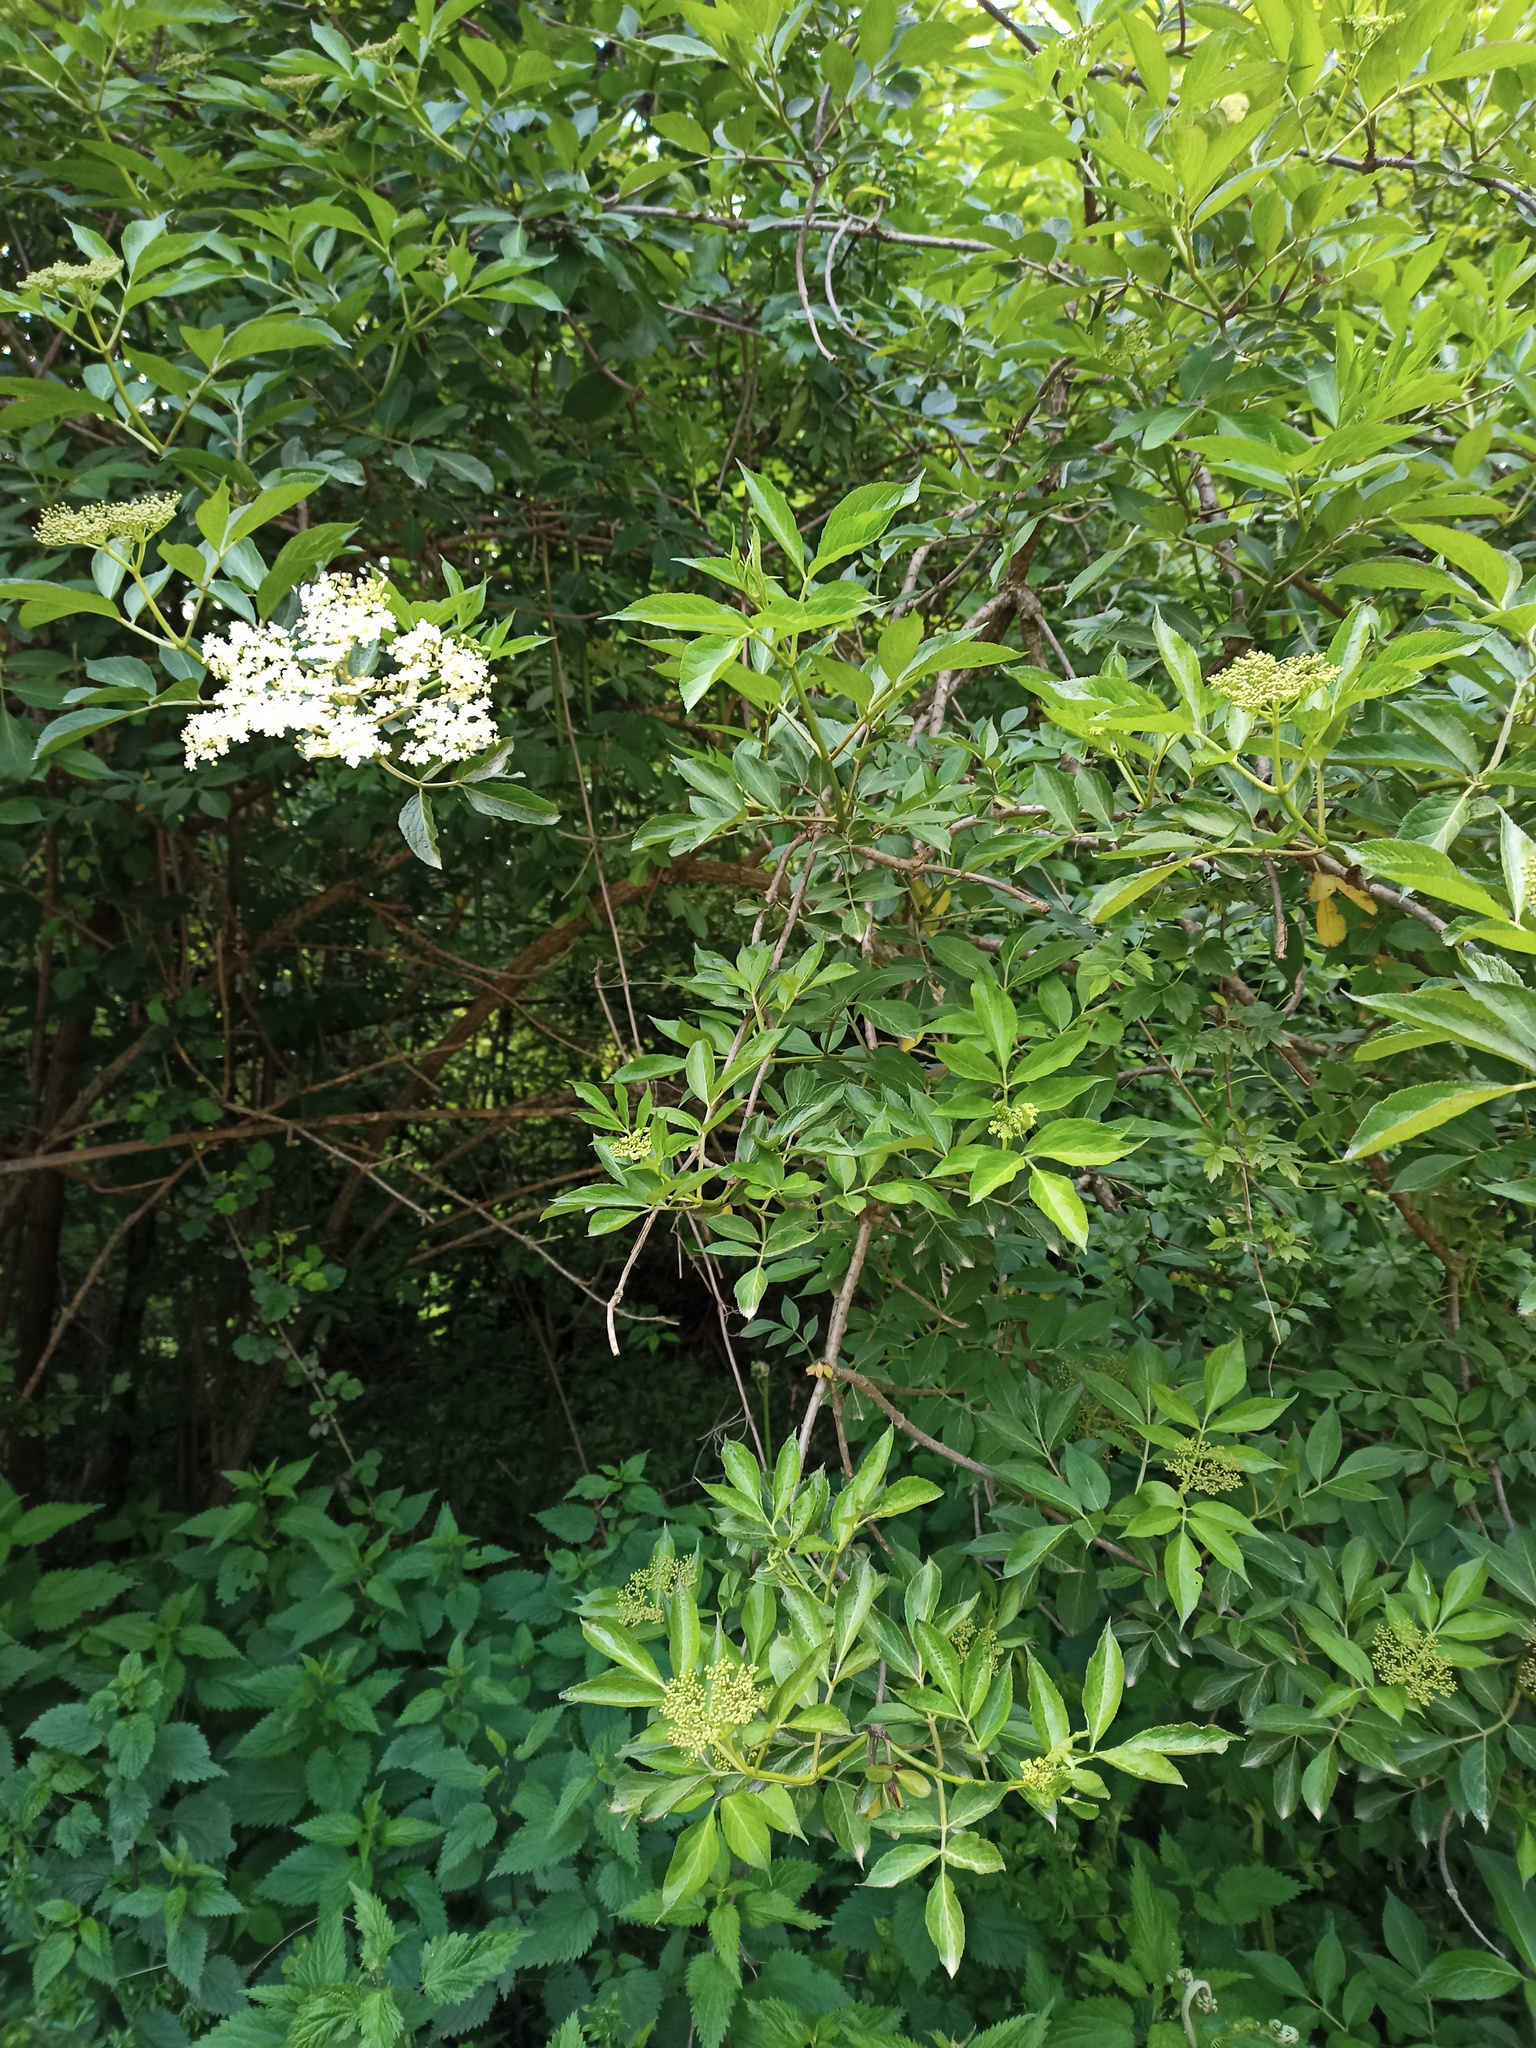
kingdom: Plantae
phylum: Tracheophyta
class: Magnoliopsida
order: Dipsacales
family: Viburnaceae
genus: Sambucus
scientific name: Sambucus nigra
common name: Elder
